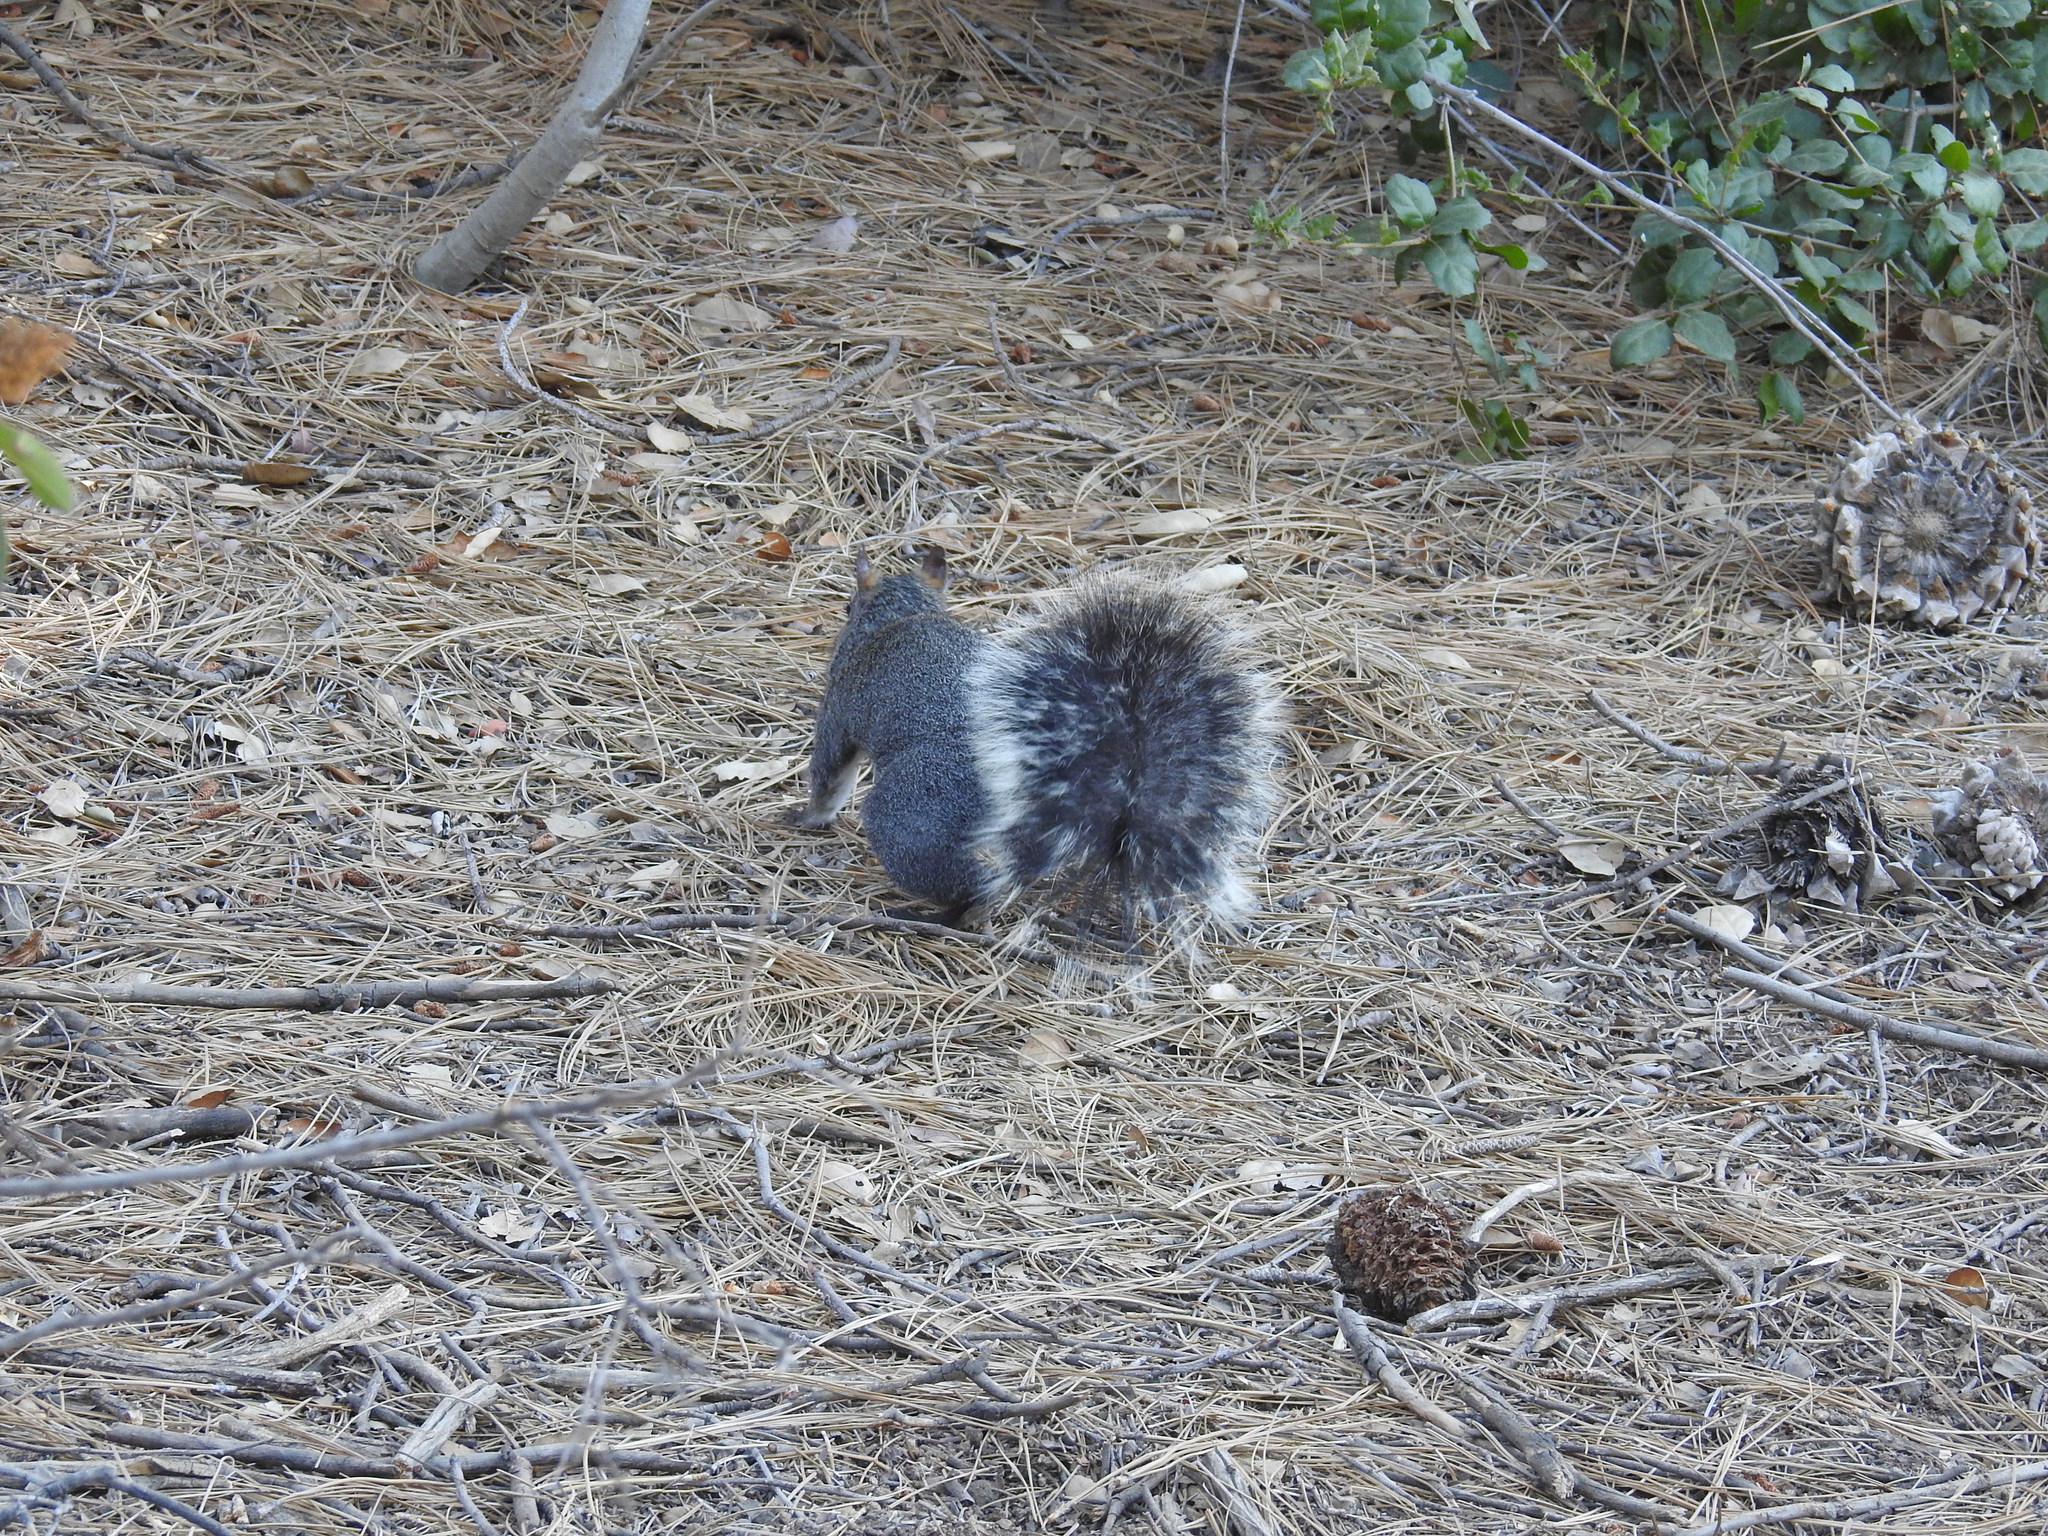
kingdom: Animalia
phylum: Chordata
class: Mammalia
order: Rodentia
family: Sciuridae
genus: Sciurus
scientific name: Sciurus griseus
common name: Western gray squirrel
